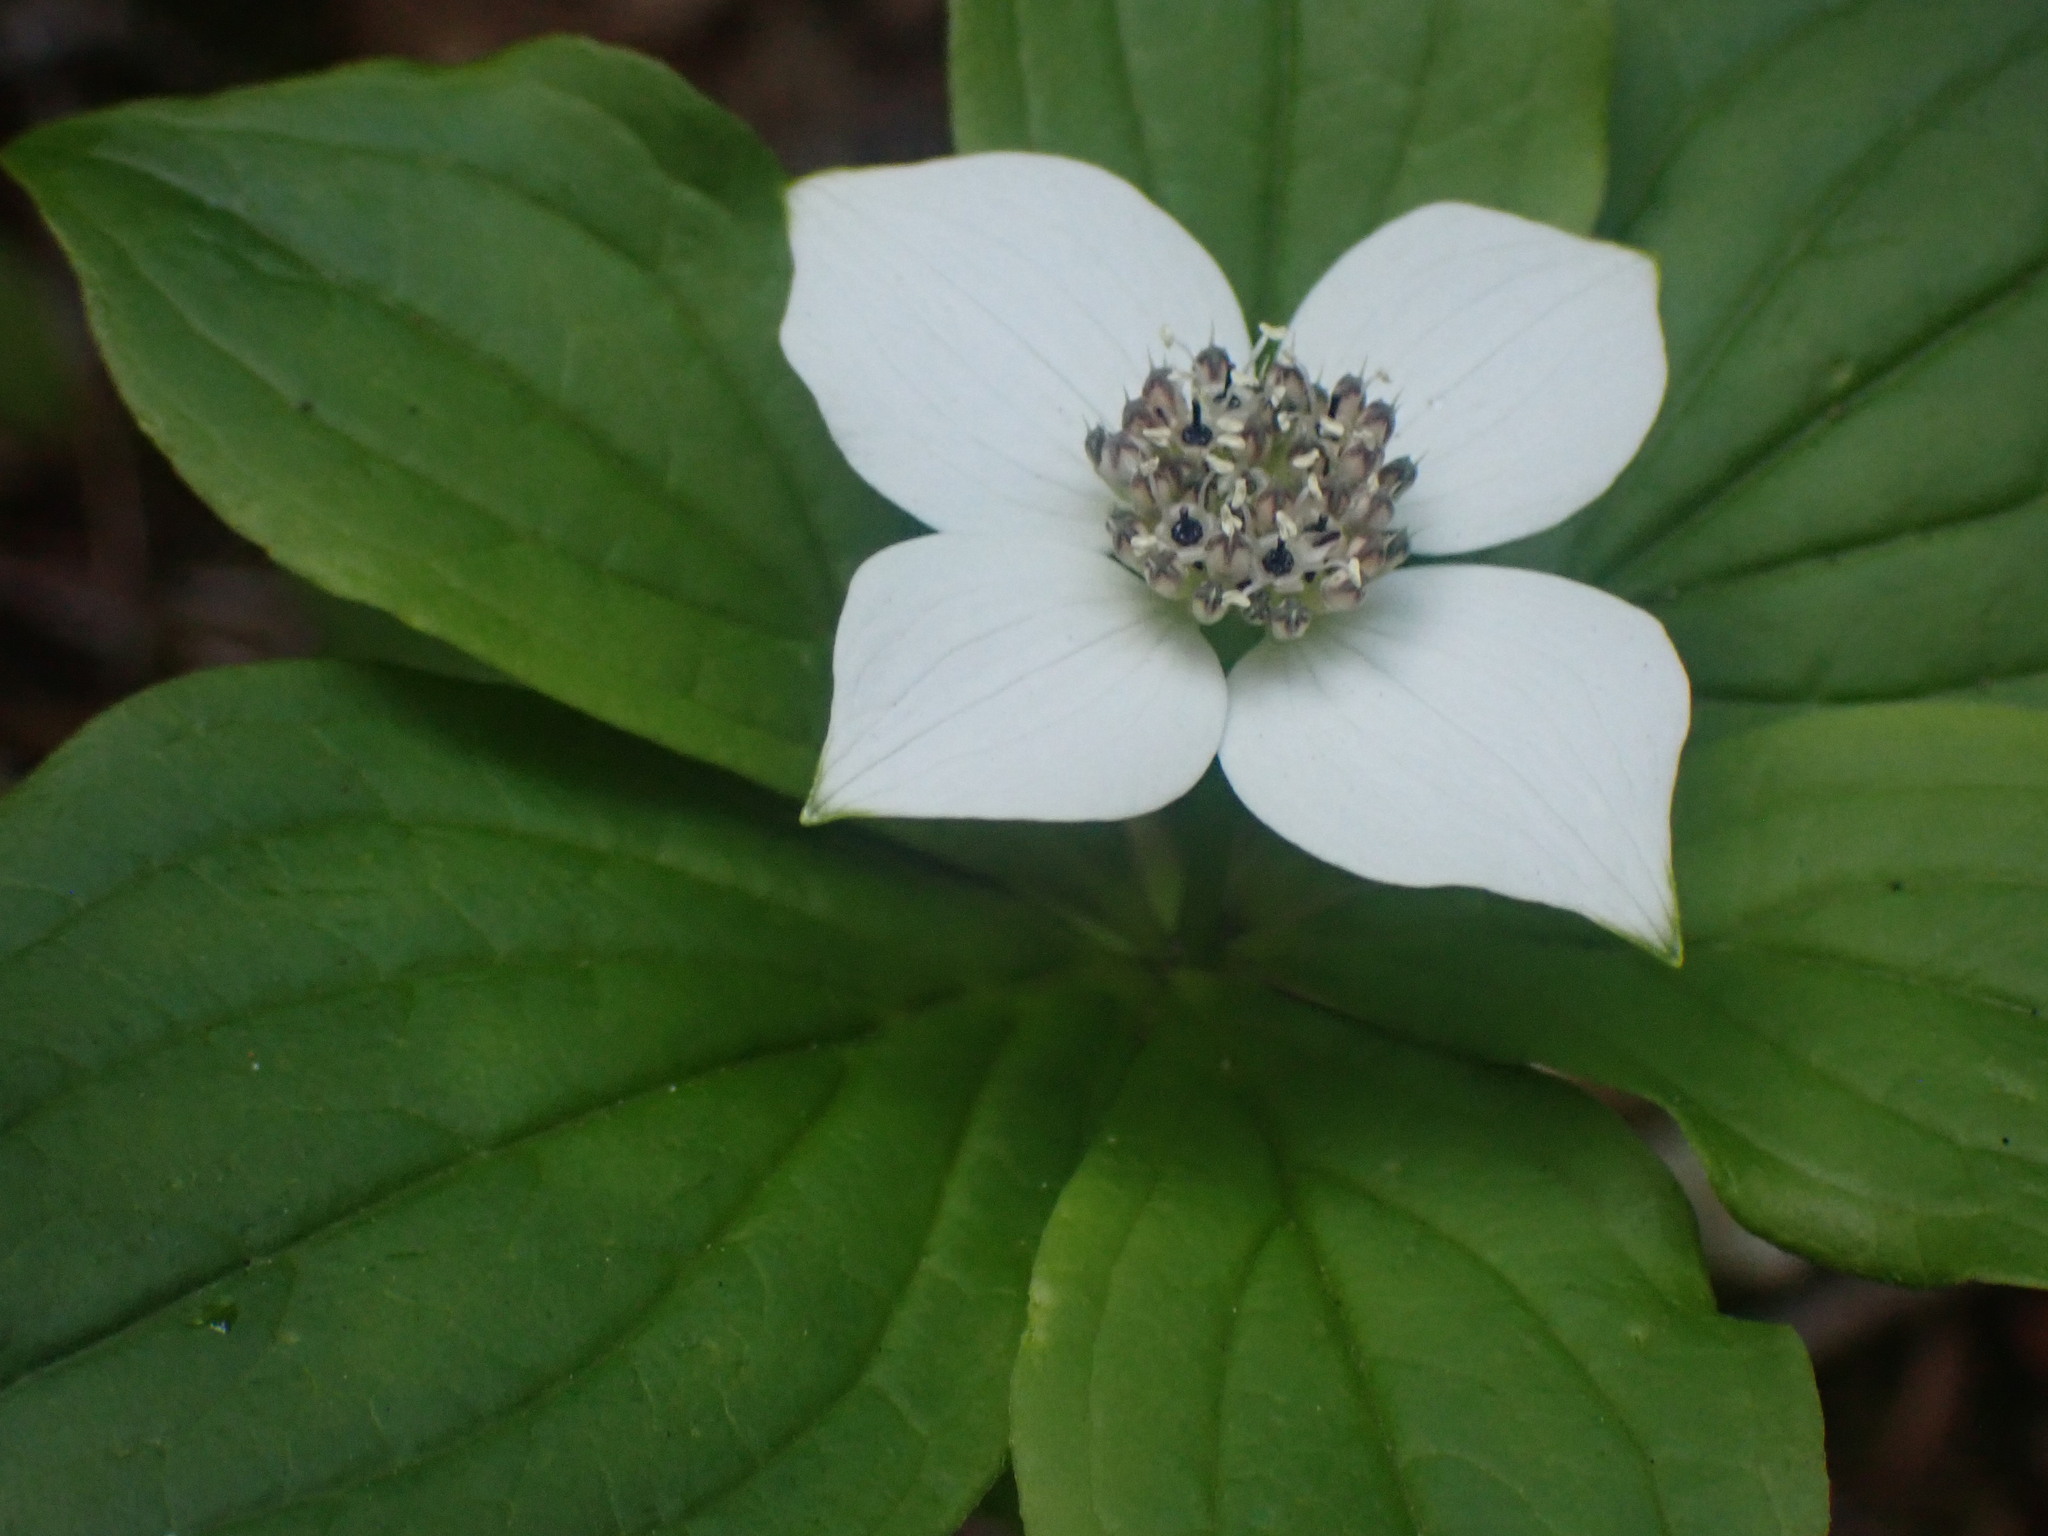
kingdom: Plantae
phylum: Tracheophyta
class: Magnoliopsida
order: Cornales
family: Cornaceae
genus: Cornus
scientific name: Cornus unalaschkensis
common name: Alaska bunchberry
